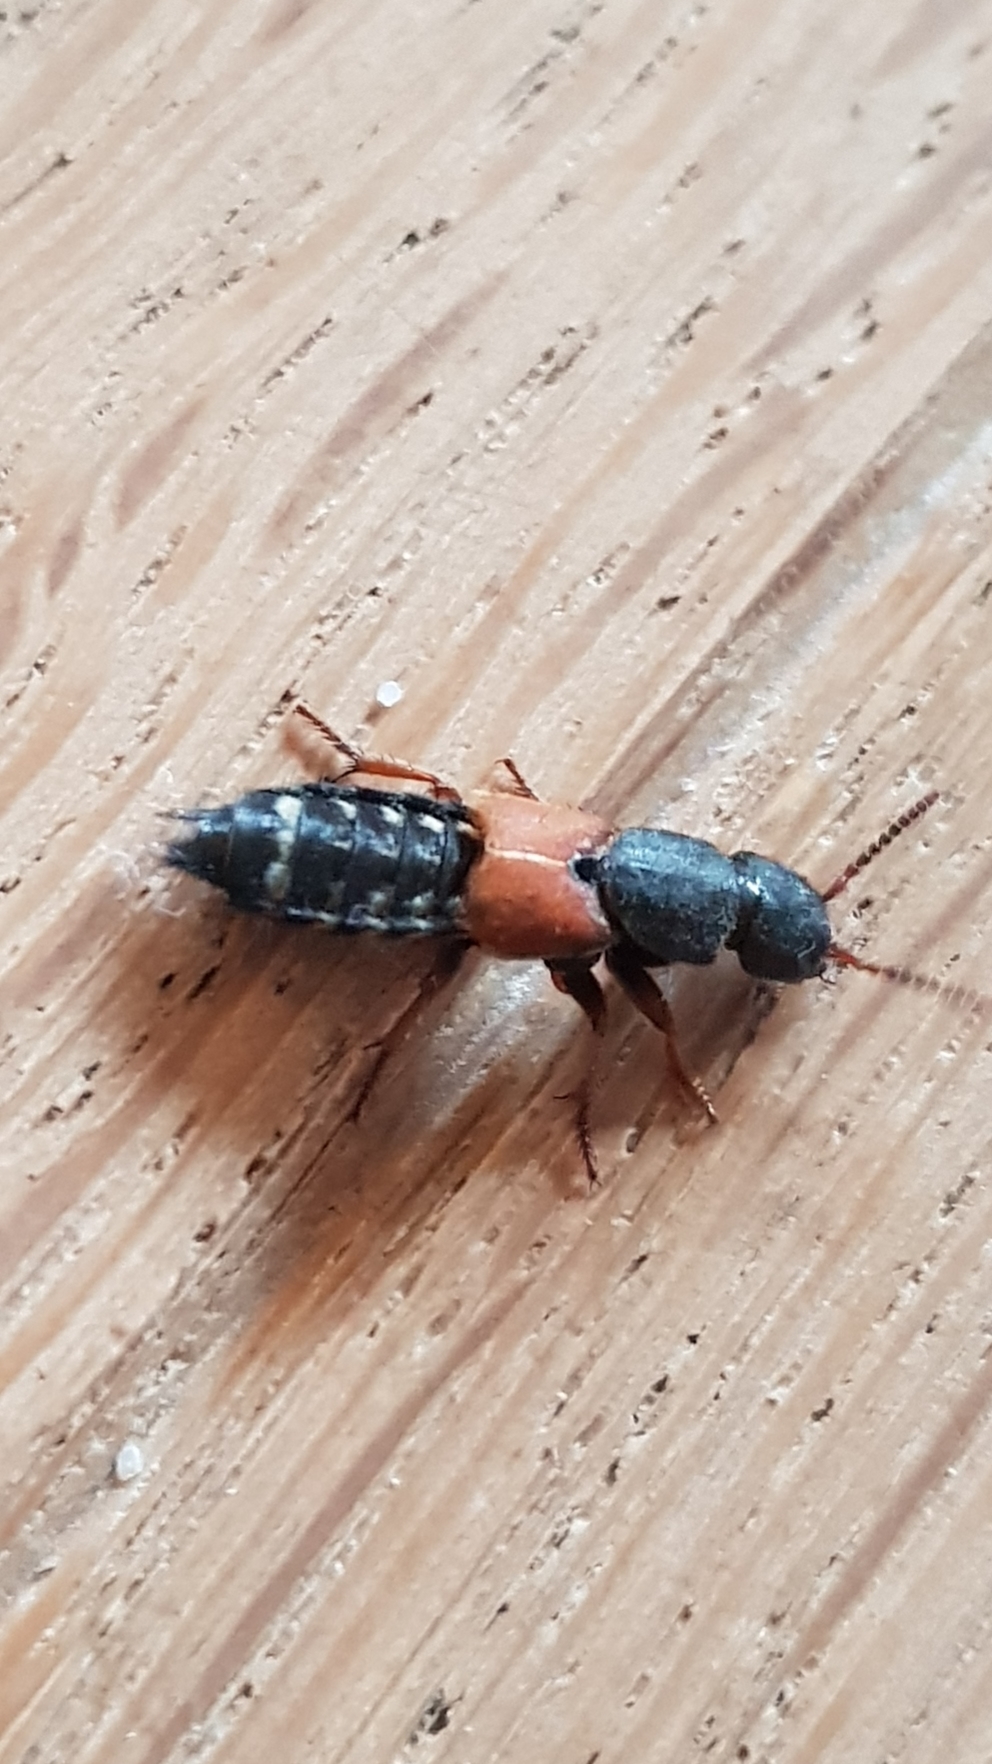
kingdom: Animalia
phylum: Arthropoda
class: Insecta
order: Coleoptera
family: Staphylinidae
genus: Platydracus
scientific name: Platydracus stercorarius
